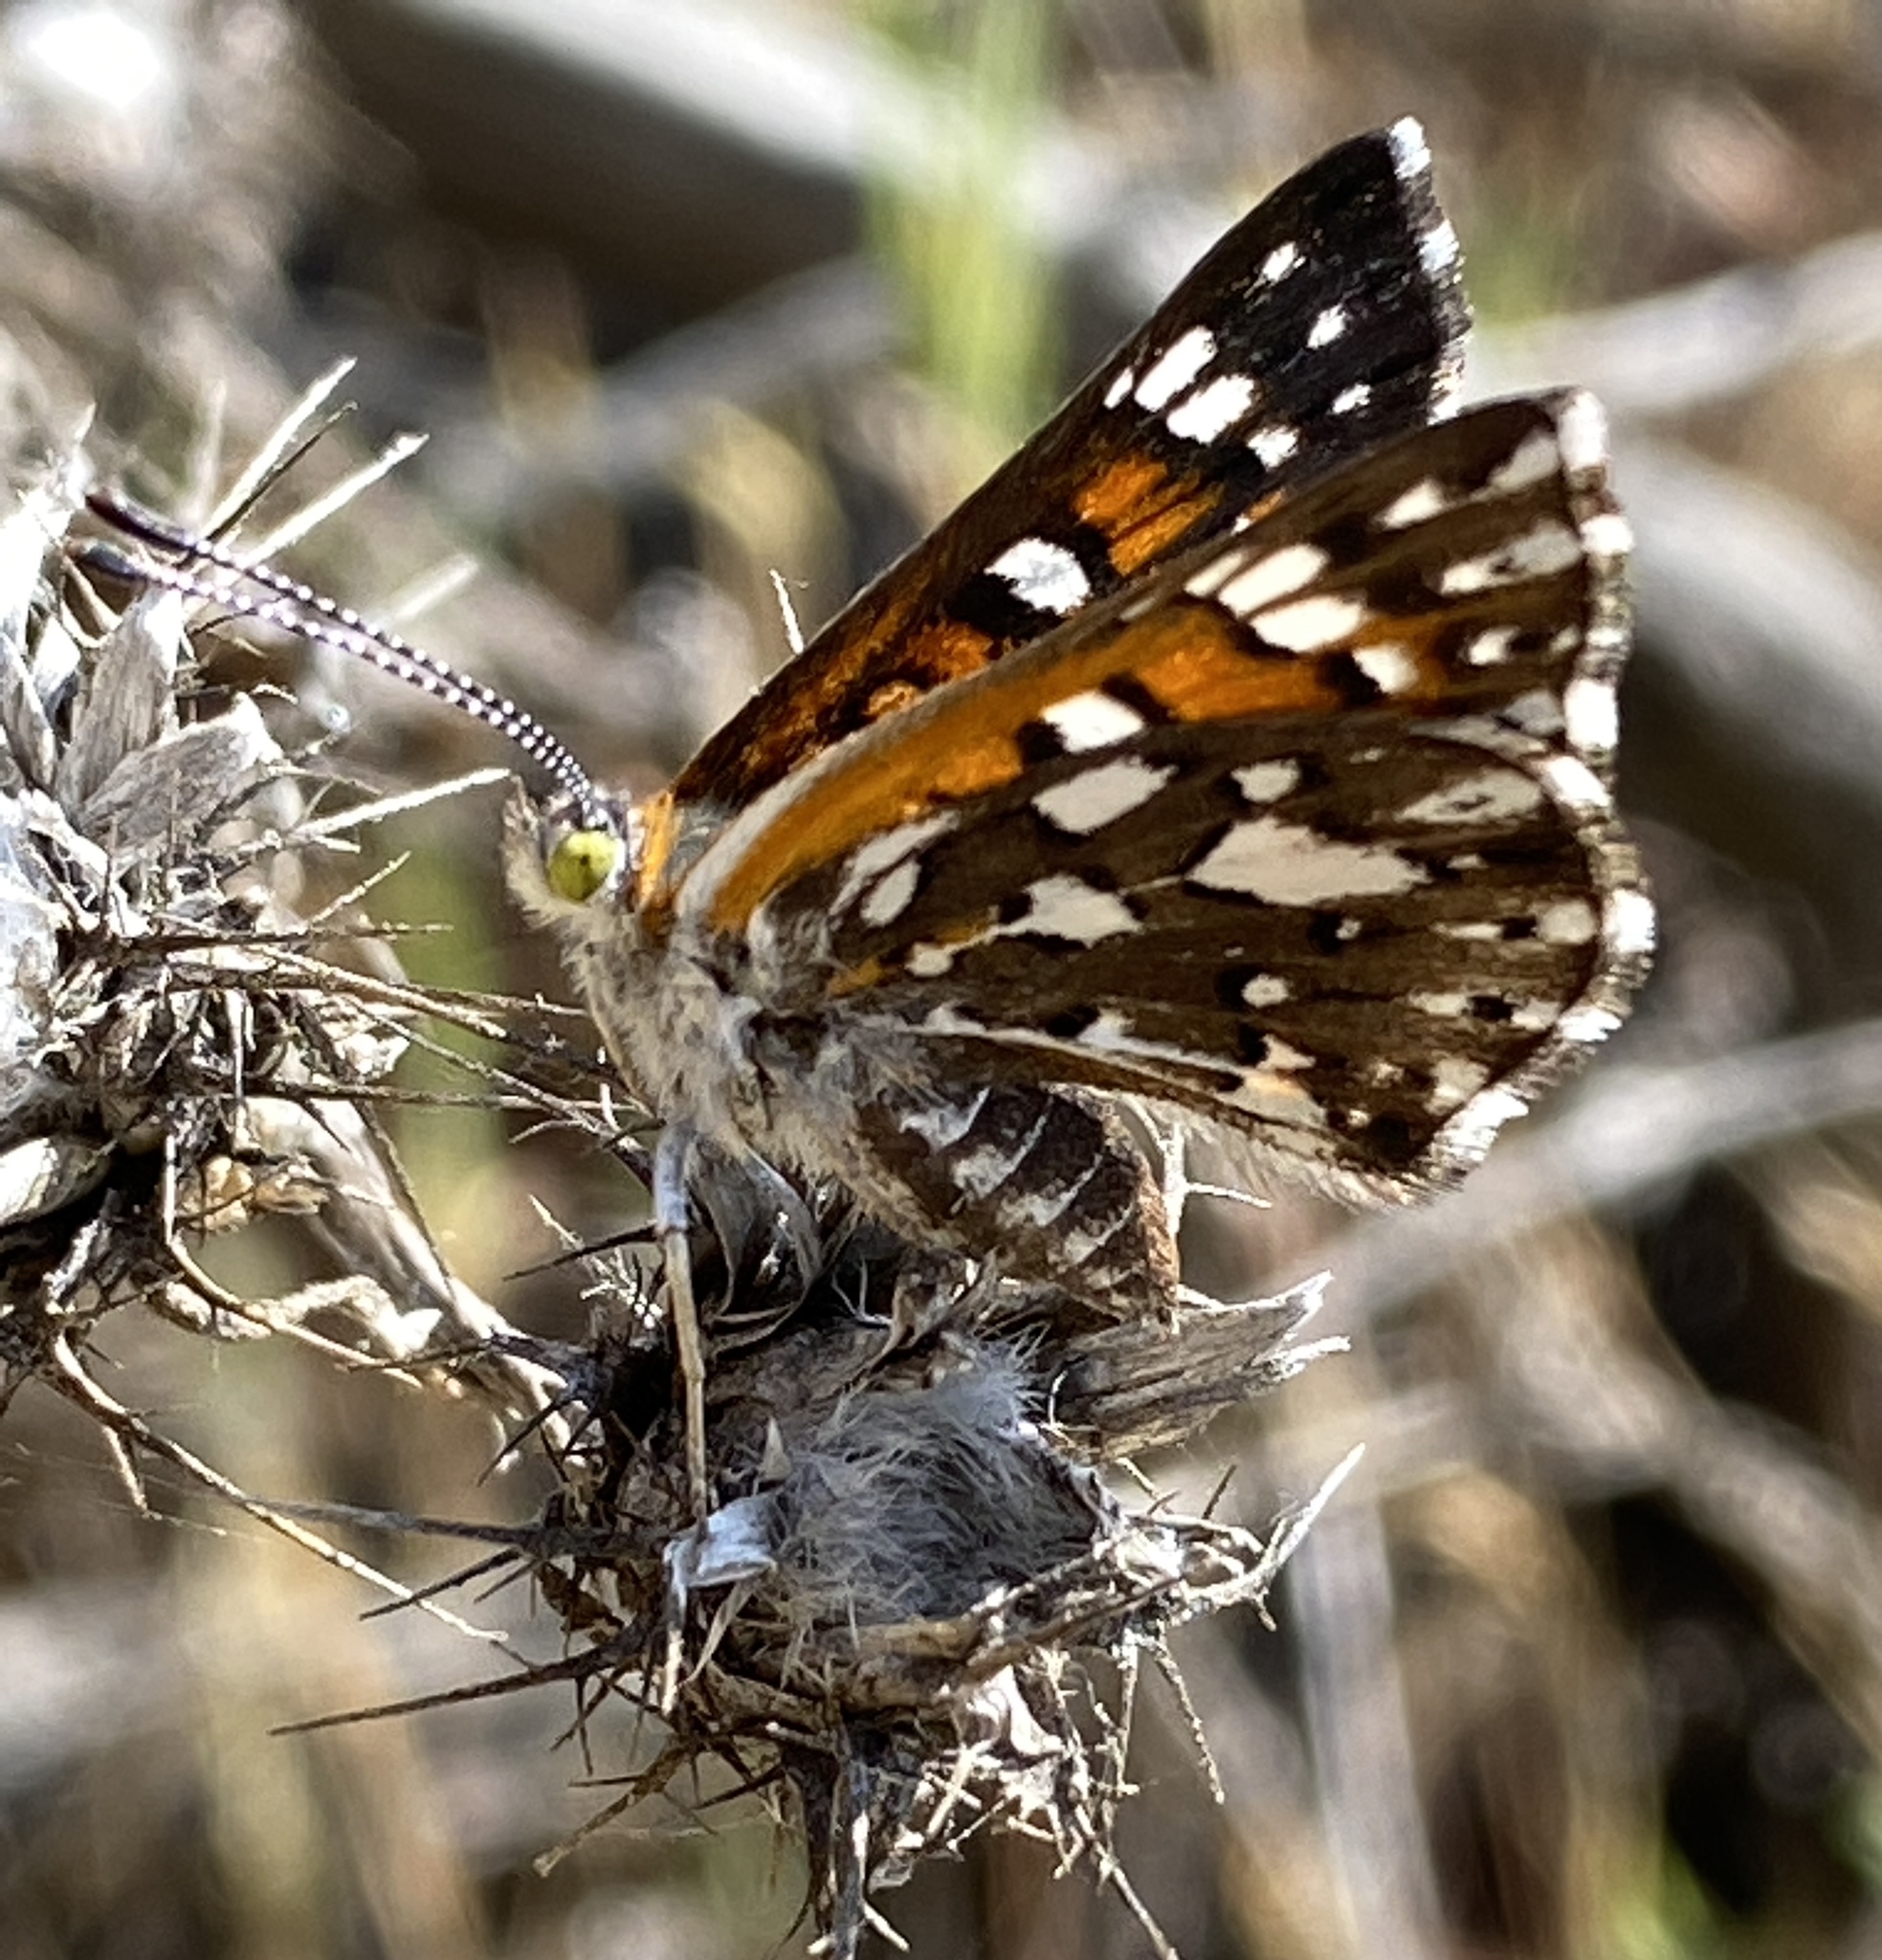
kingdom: Animalia
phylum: Arthropoda
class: Insecta
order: Lepidoptera
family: Riodinidae
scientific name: Riodinidae
